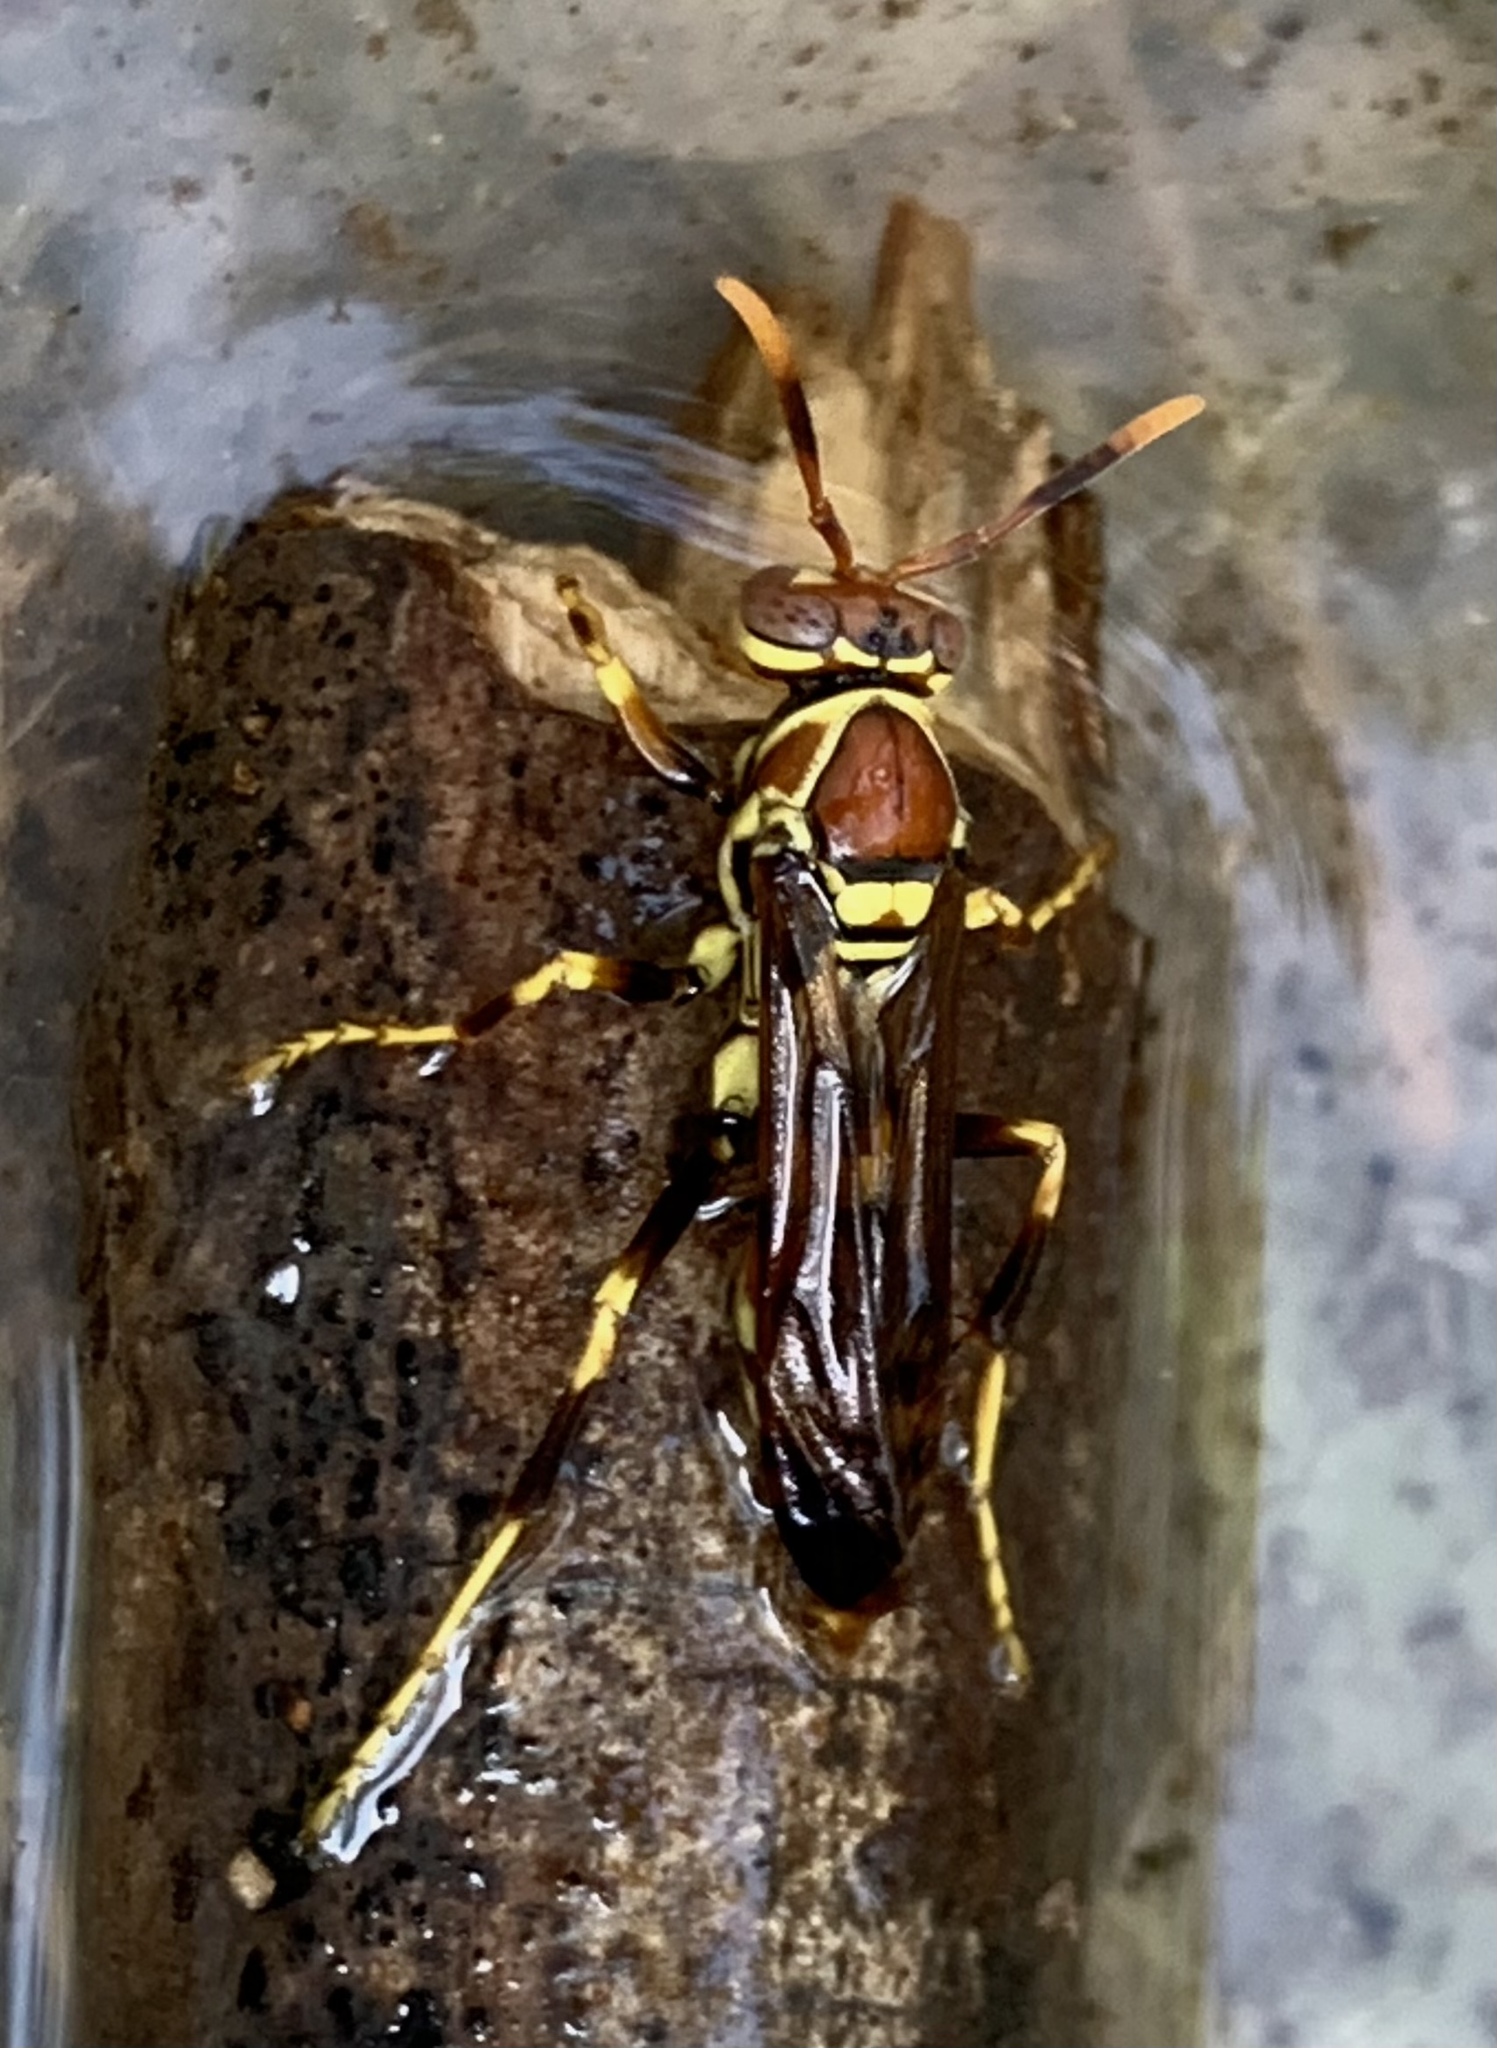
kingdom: Animalia
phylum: Arthropoda
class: Insecta
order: Hymenoptera
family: Eumenidae
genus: Polistes
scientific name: Polistes exclamans
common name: Paper wasp
